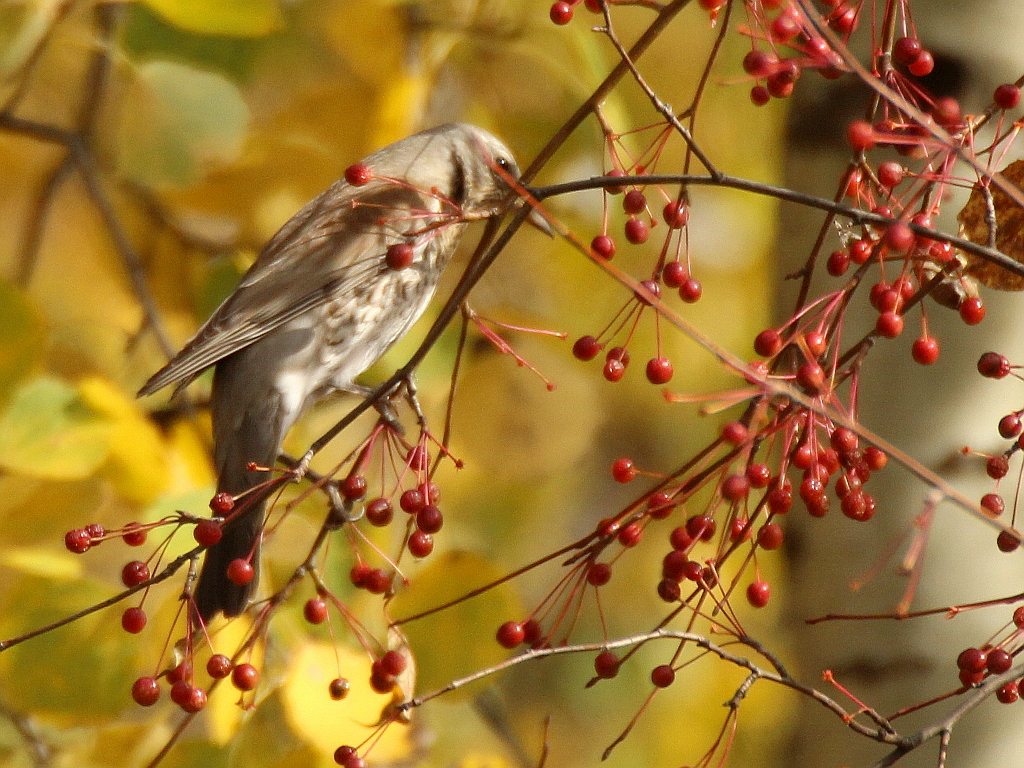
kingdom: Animalia
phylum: Chordata
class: Aves
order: Passeriformes
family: Turdidae
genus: Turdus
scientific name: Turdus pilaris
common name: Fieldfare
